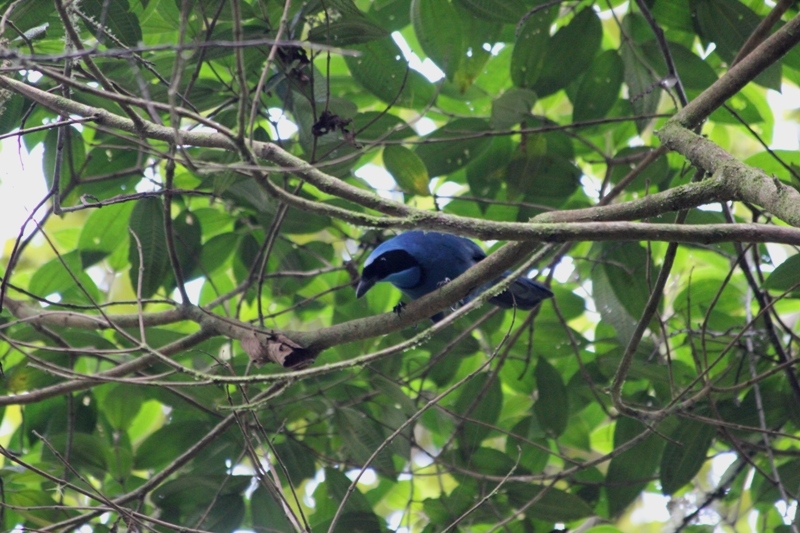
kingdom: Animalia
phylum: Chordata
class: Aves
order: Passeriformes
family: Corvidae
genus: Cyanolyca
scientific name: Cyanolyca turcosa
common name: Turquoise jay
